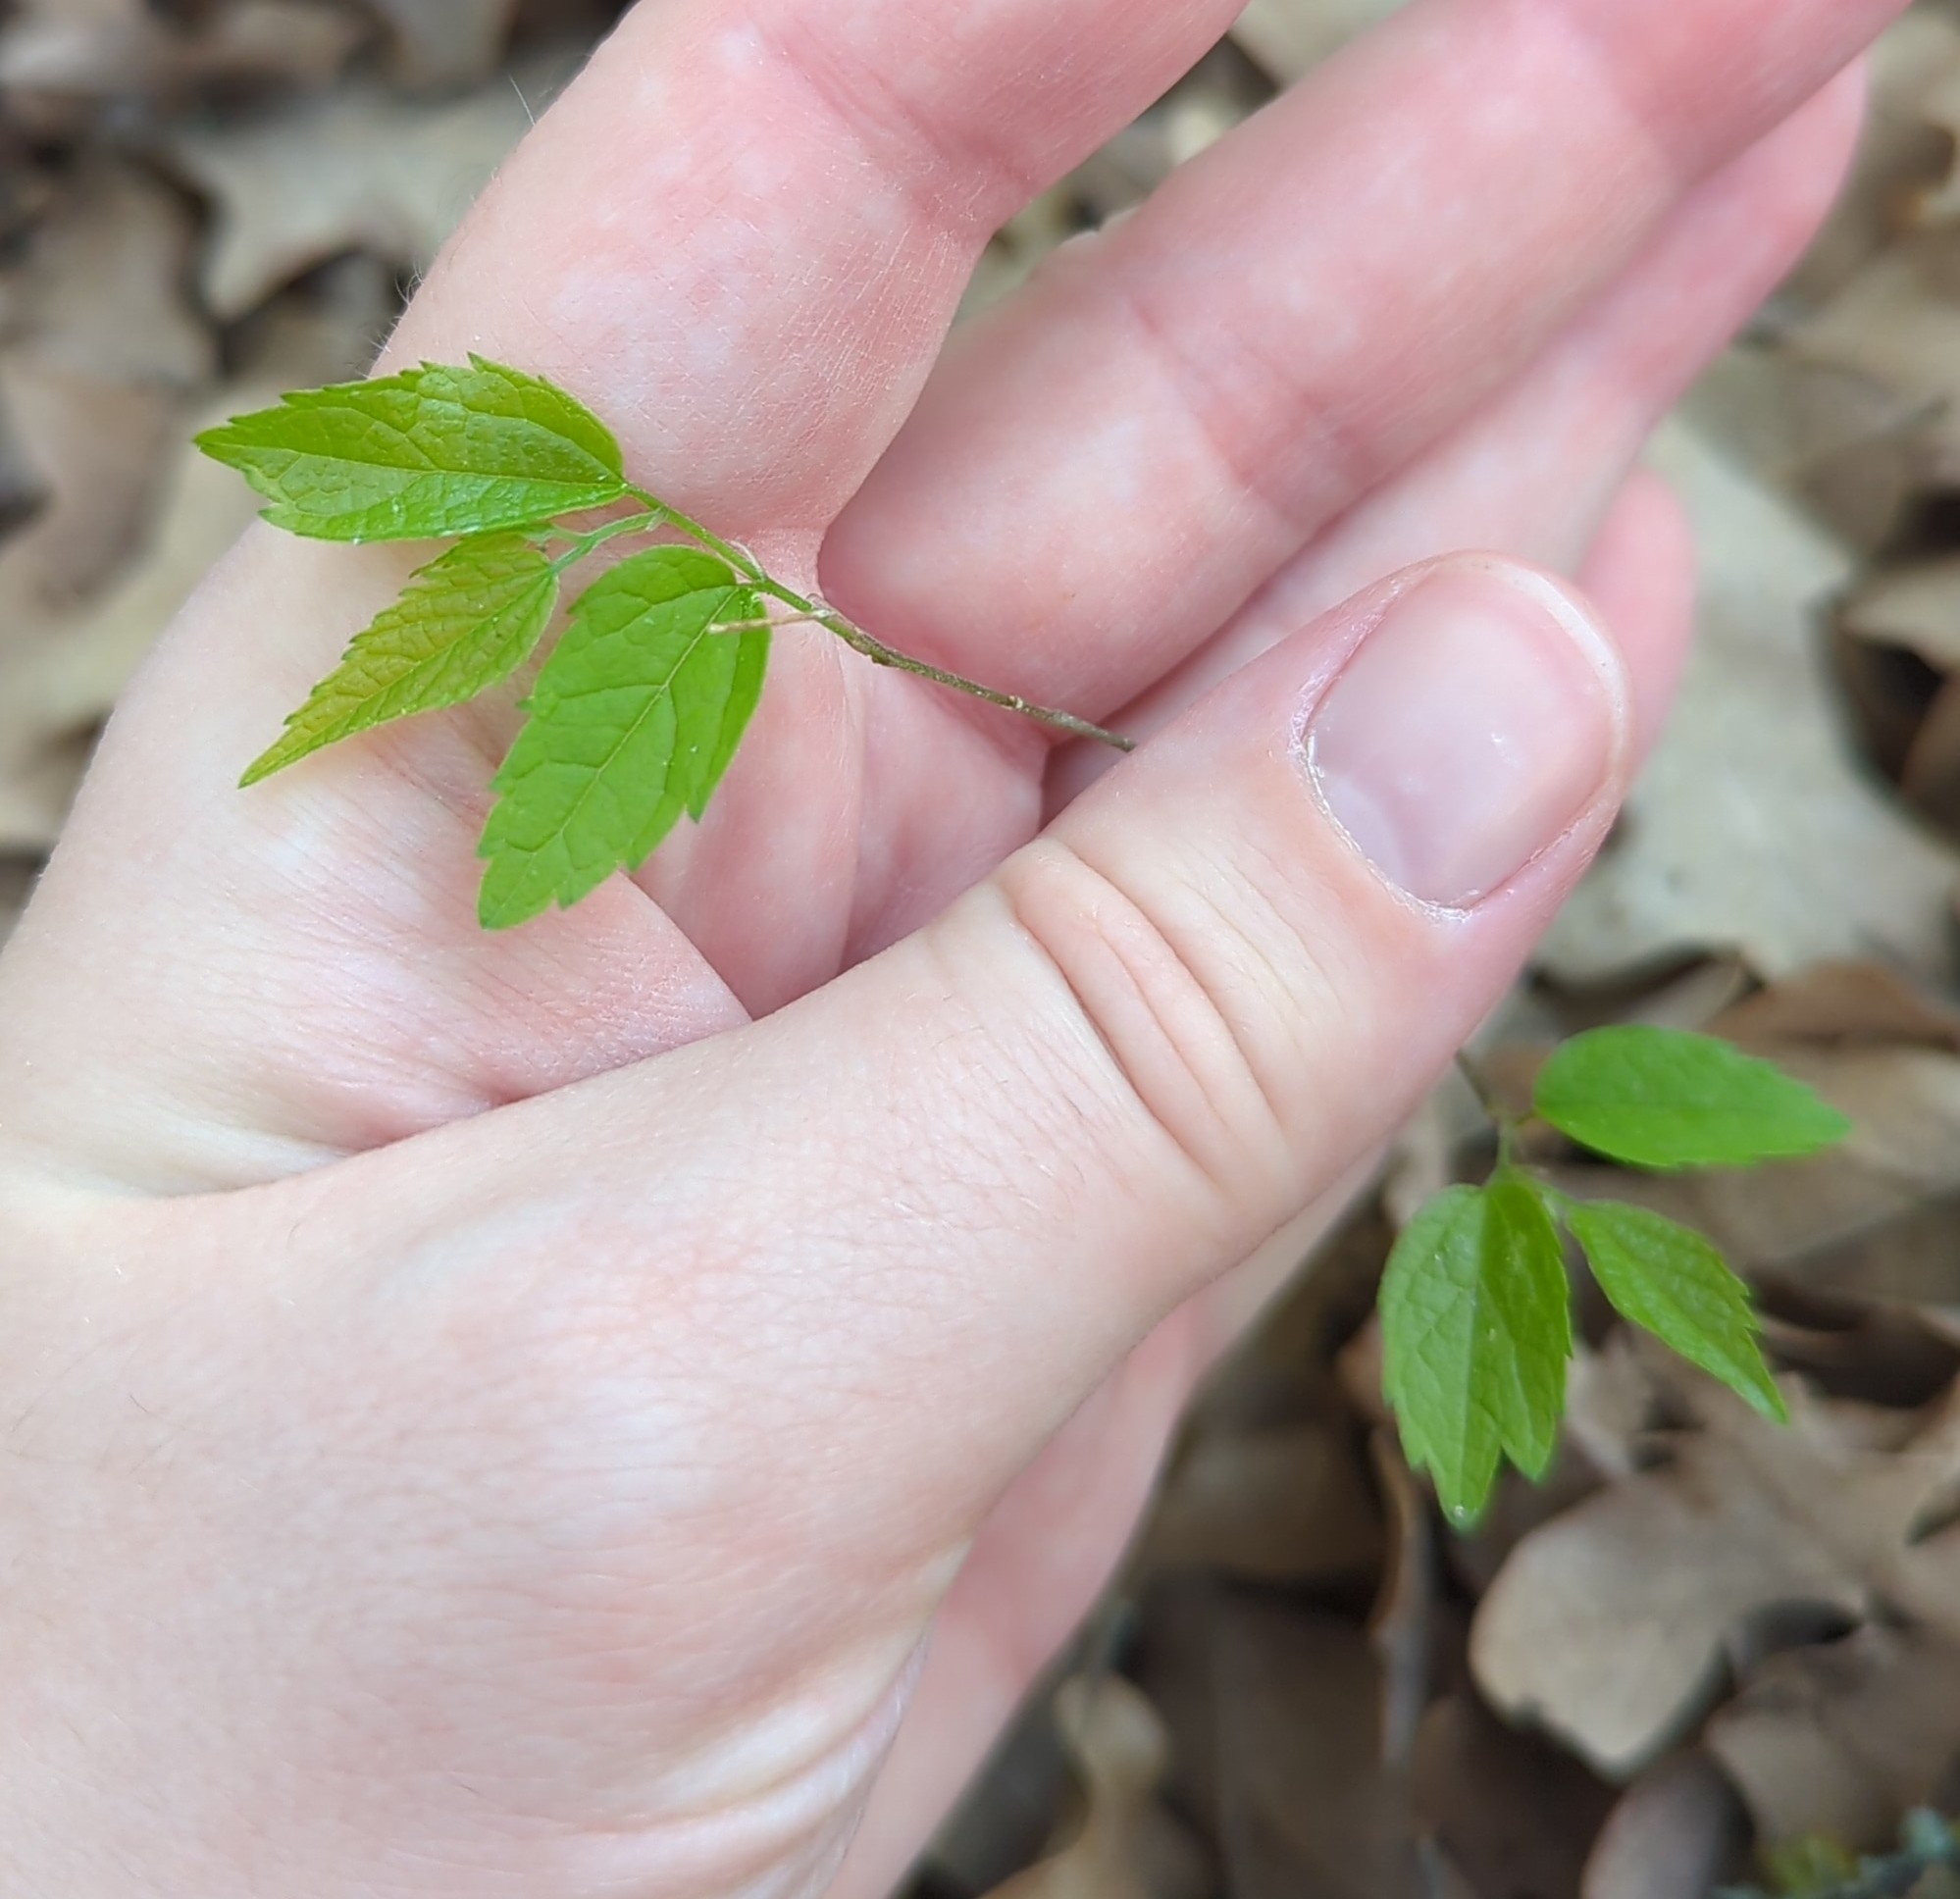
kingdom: Plantae
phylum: Tracheophyta
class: Magnoliopsida
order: Rosales
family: Cannabaceae
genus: Celtis
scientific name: Celtis laevigata
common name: Sugarberry
